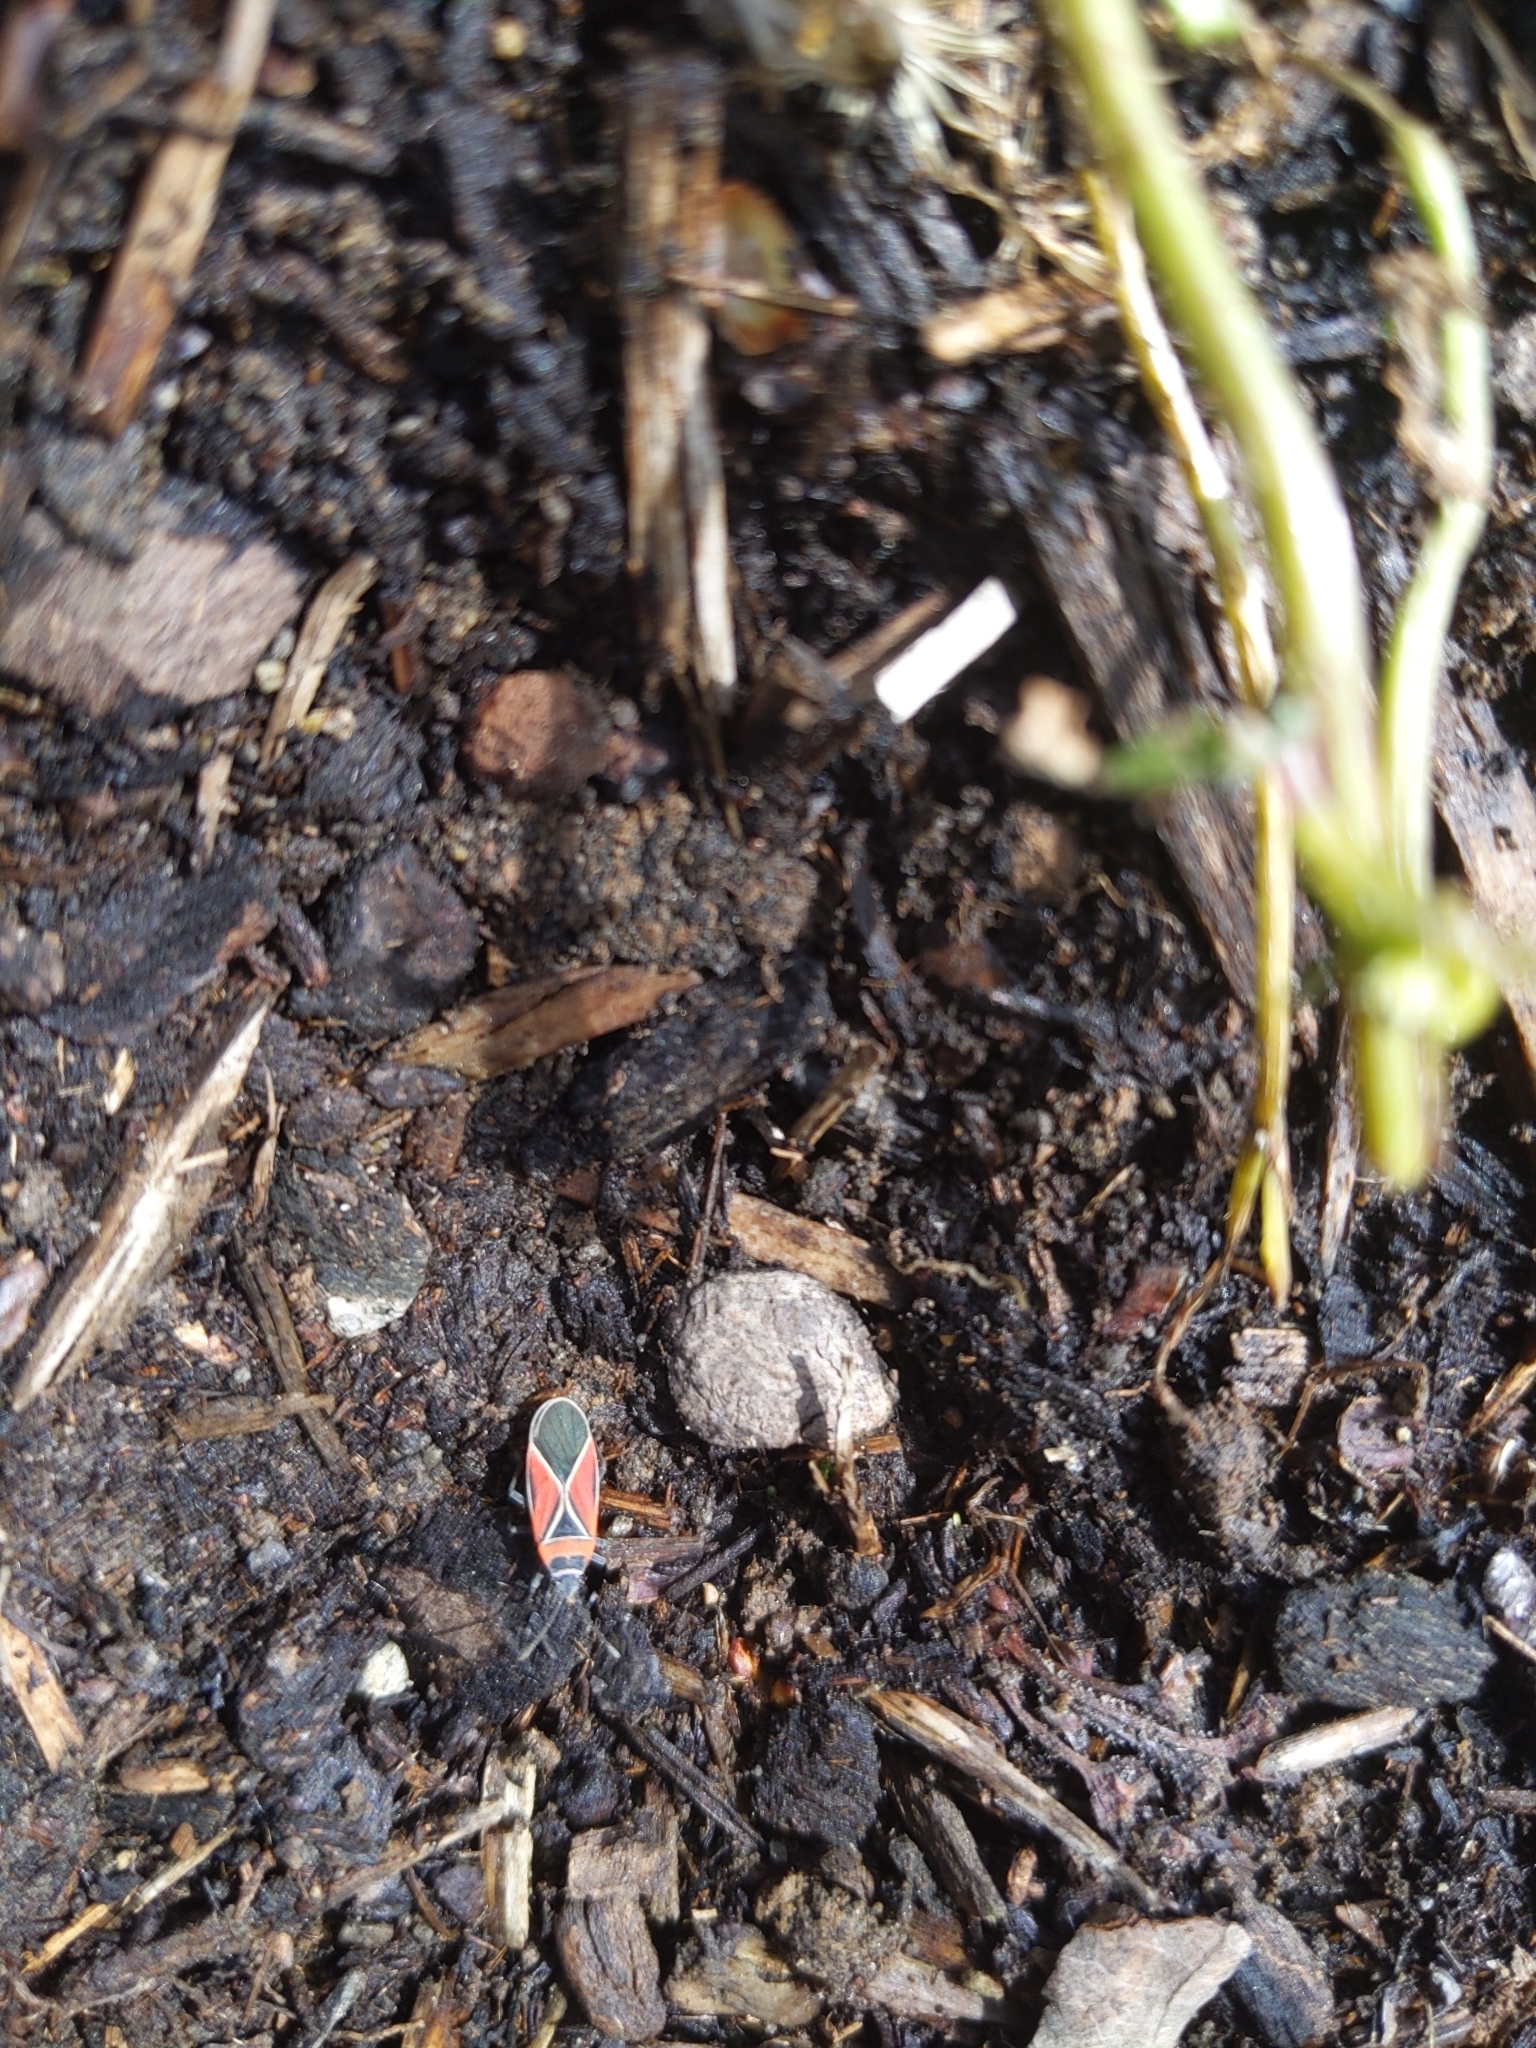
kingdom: Animalia
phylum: Arthropoda
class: Insecta
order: Hemiptera
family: Lygaeidae
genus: Neacoryphus
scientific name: Neacoryphus bicrucis
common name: Lygaeid bug
